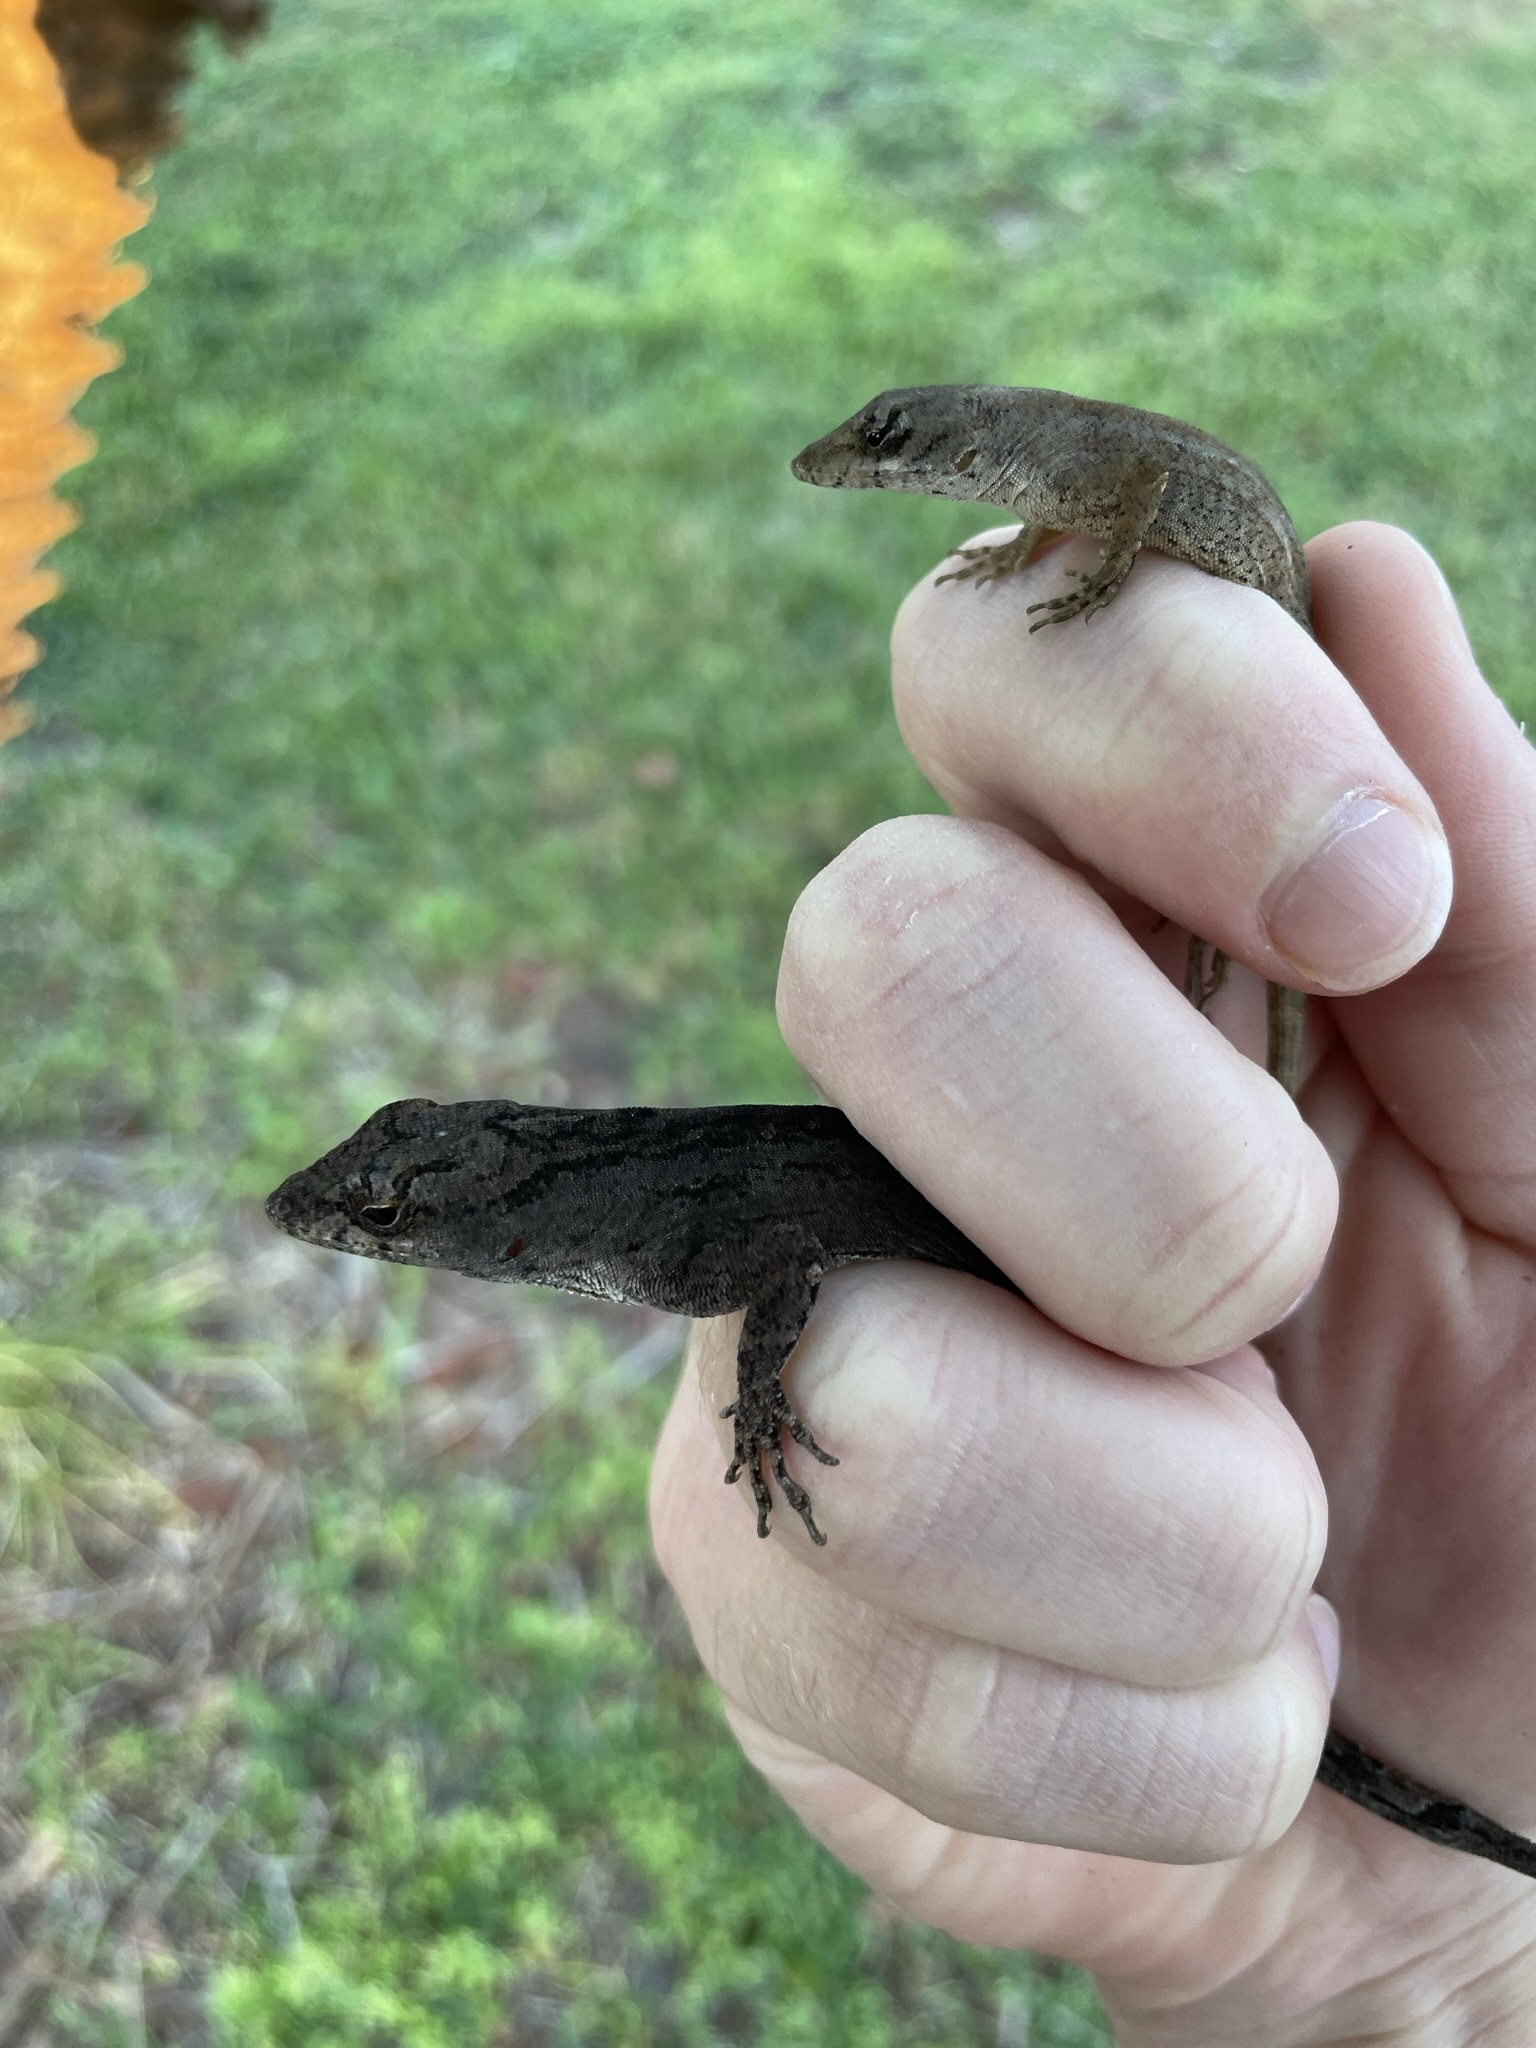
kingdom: Animalia
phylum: Chordata
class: Squamata
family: Dactyloidae
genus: Anolis
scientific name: Anolis sagrei
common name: Brown anole
